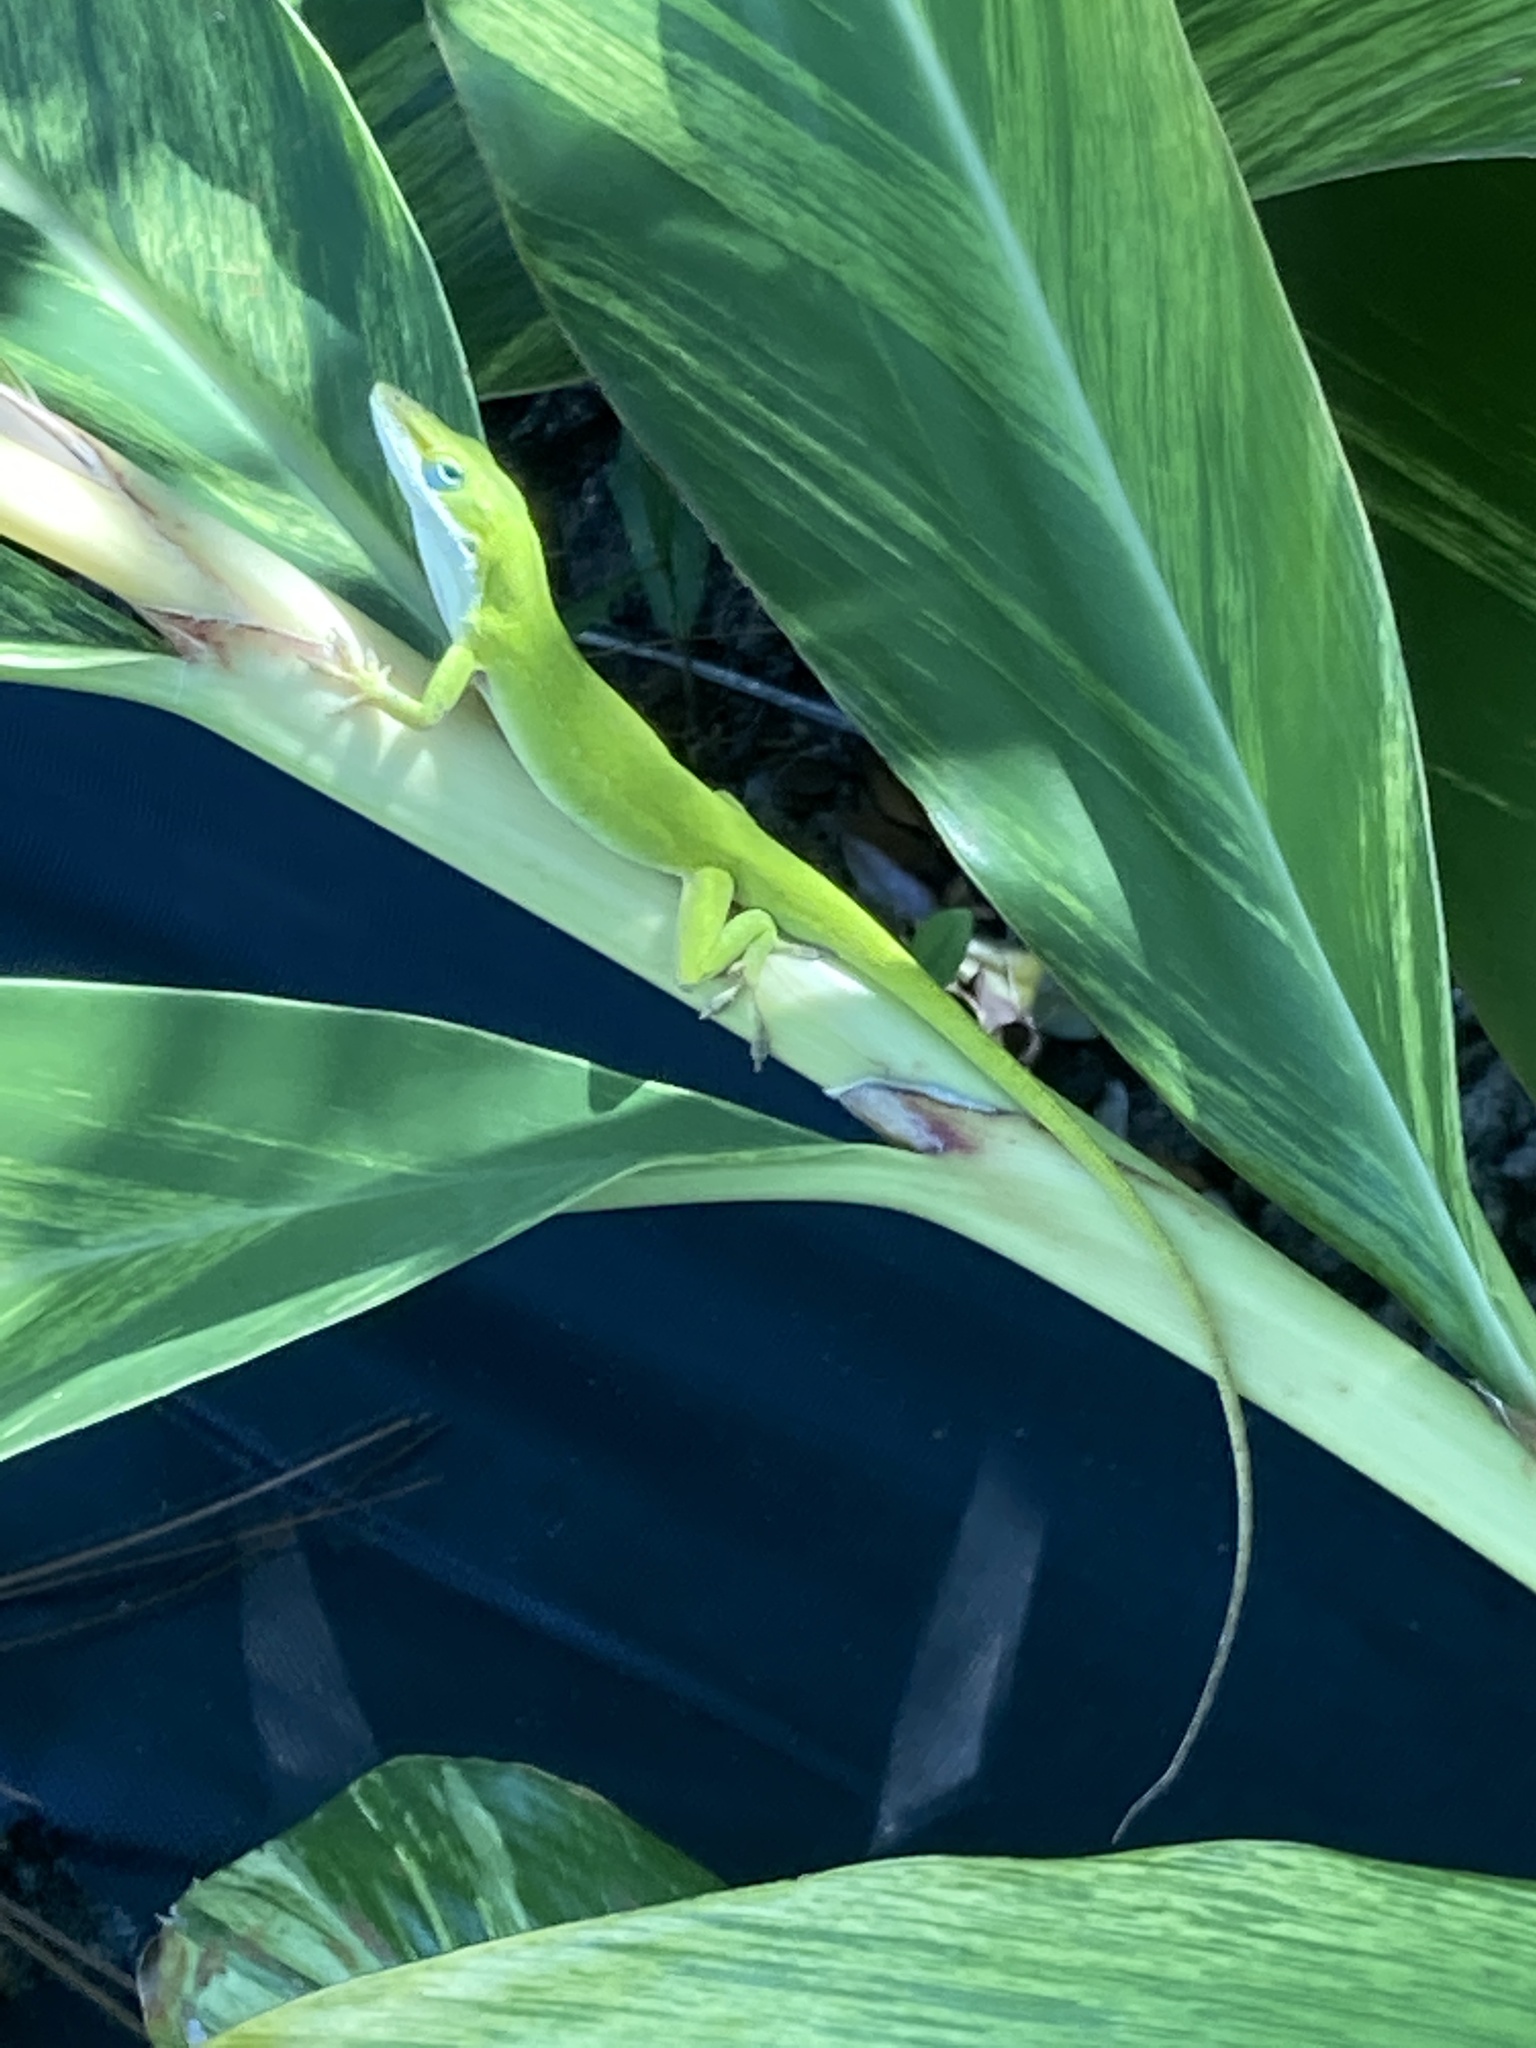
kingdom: Animalia
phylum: Chordata
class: Squamata
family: Dactyloidae
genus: Anolis
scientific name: Anolis carolinensis
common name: Green anole
